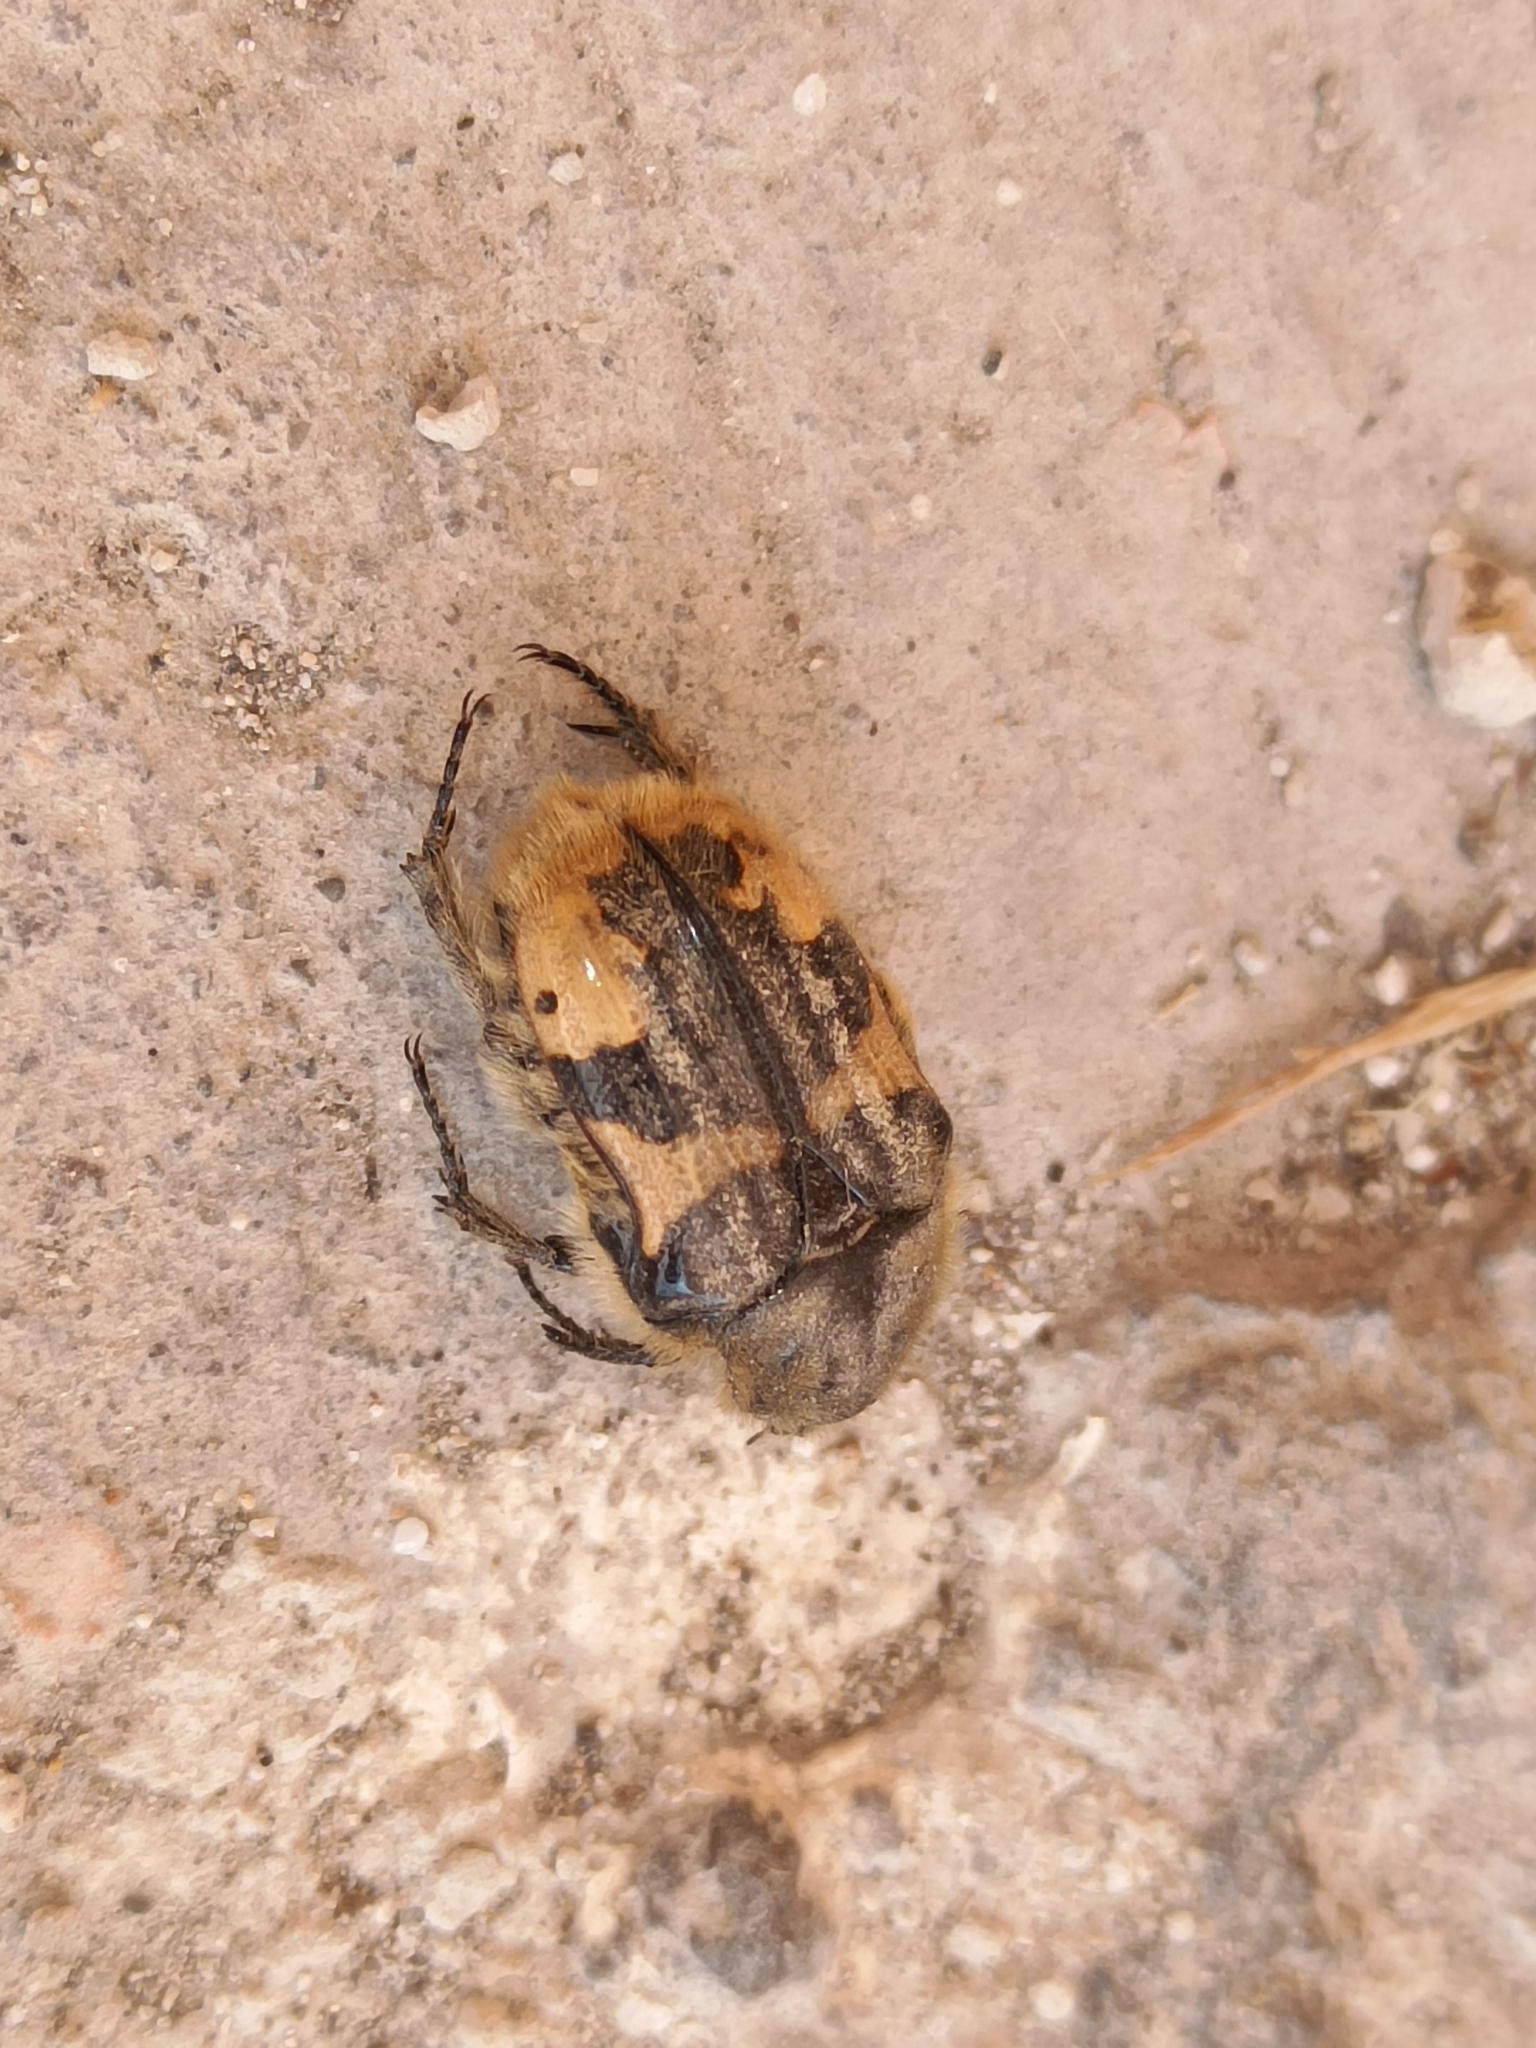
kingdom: Animalia
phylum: Arthropoda
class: Insecta
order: Coleoptera
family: Scarabaeidae
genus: Euphoria
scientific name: Euphoria basalis
